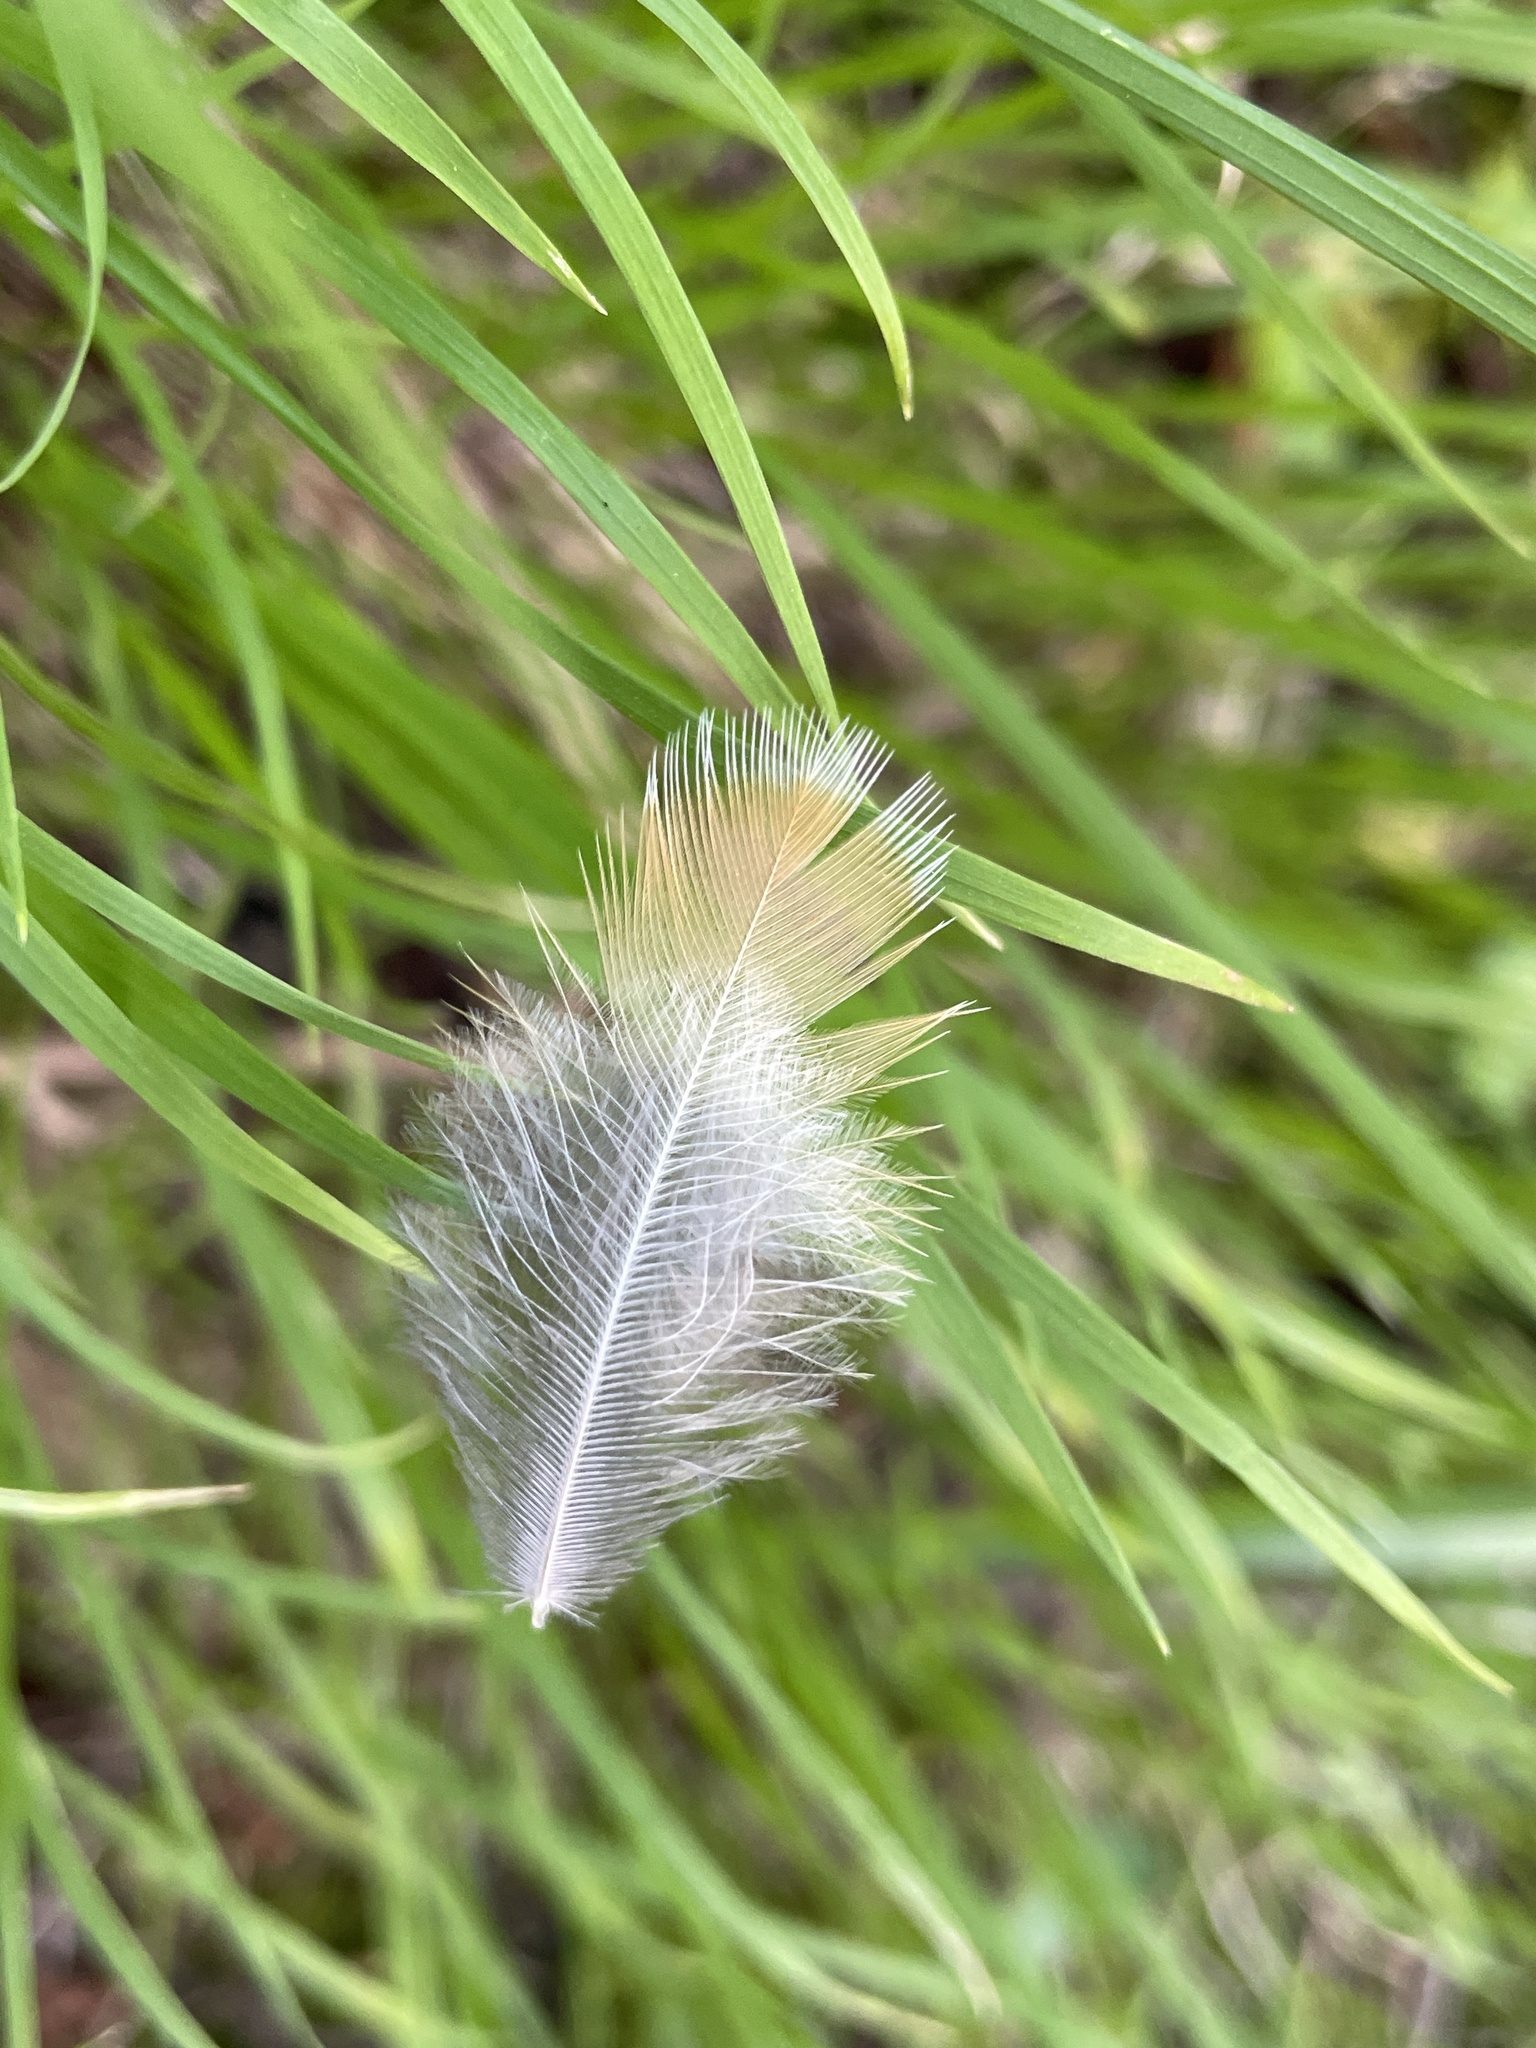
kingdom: Animalia
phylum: Chordata
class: Aves
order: Passeriformes
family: Turdidae
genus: Turdus
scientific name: Turdus migratorius
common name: American robin
